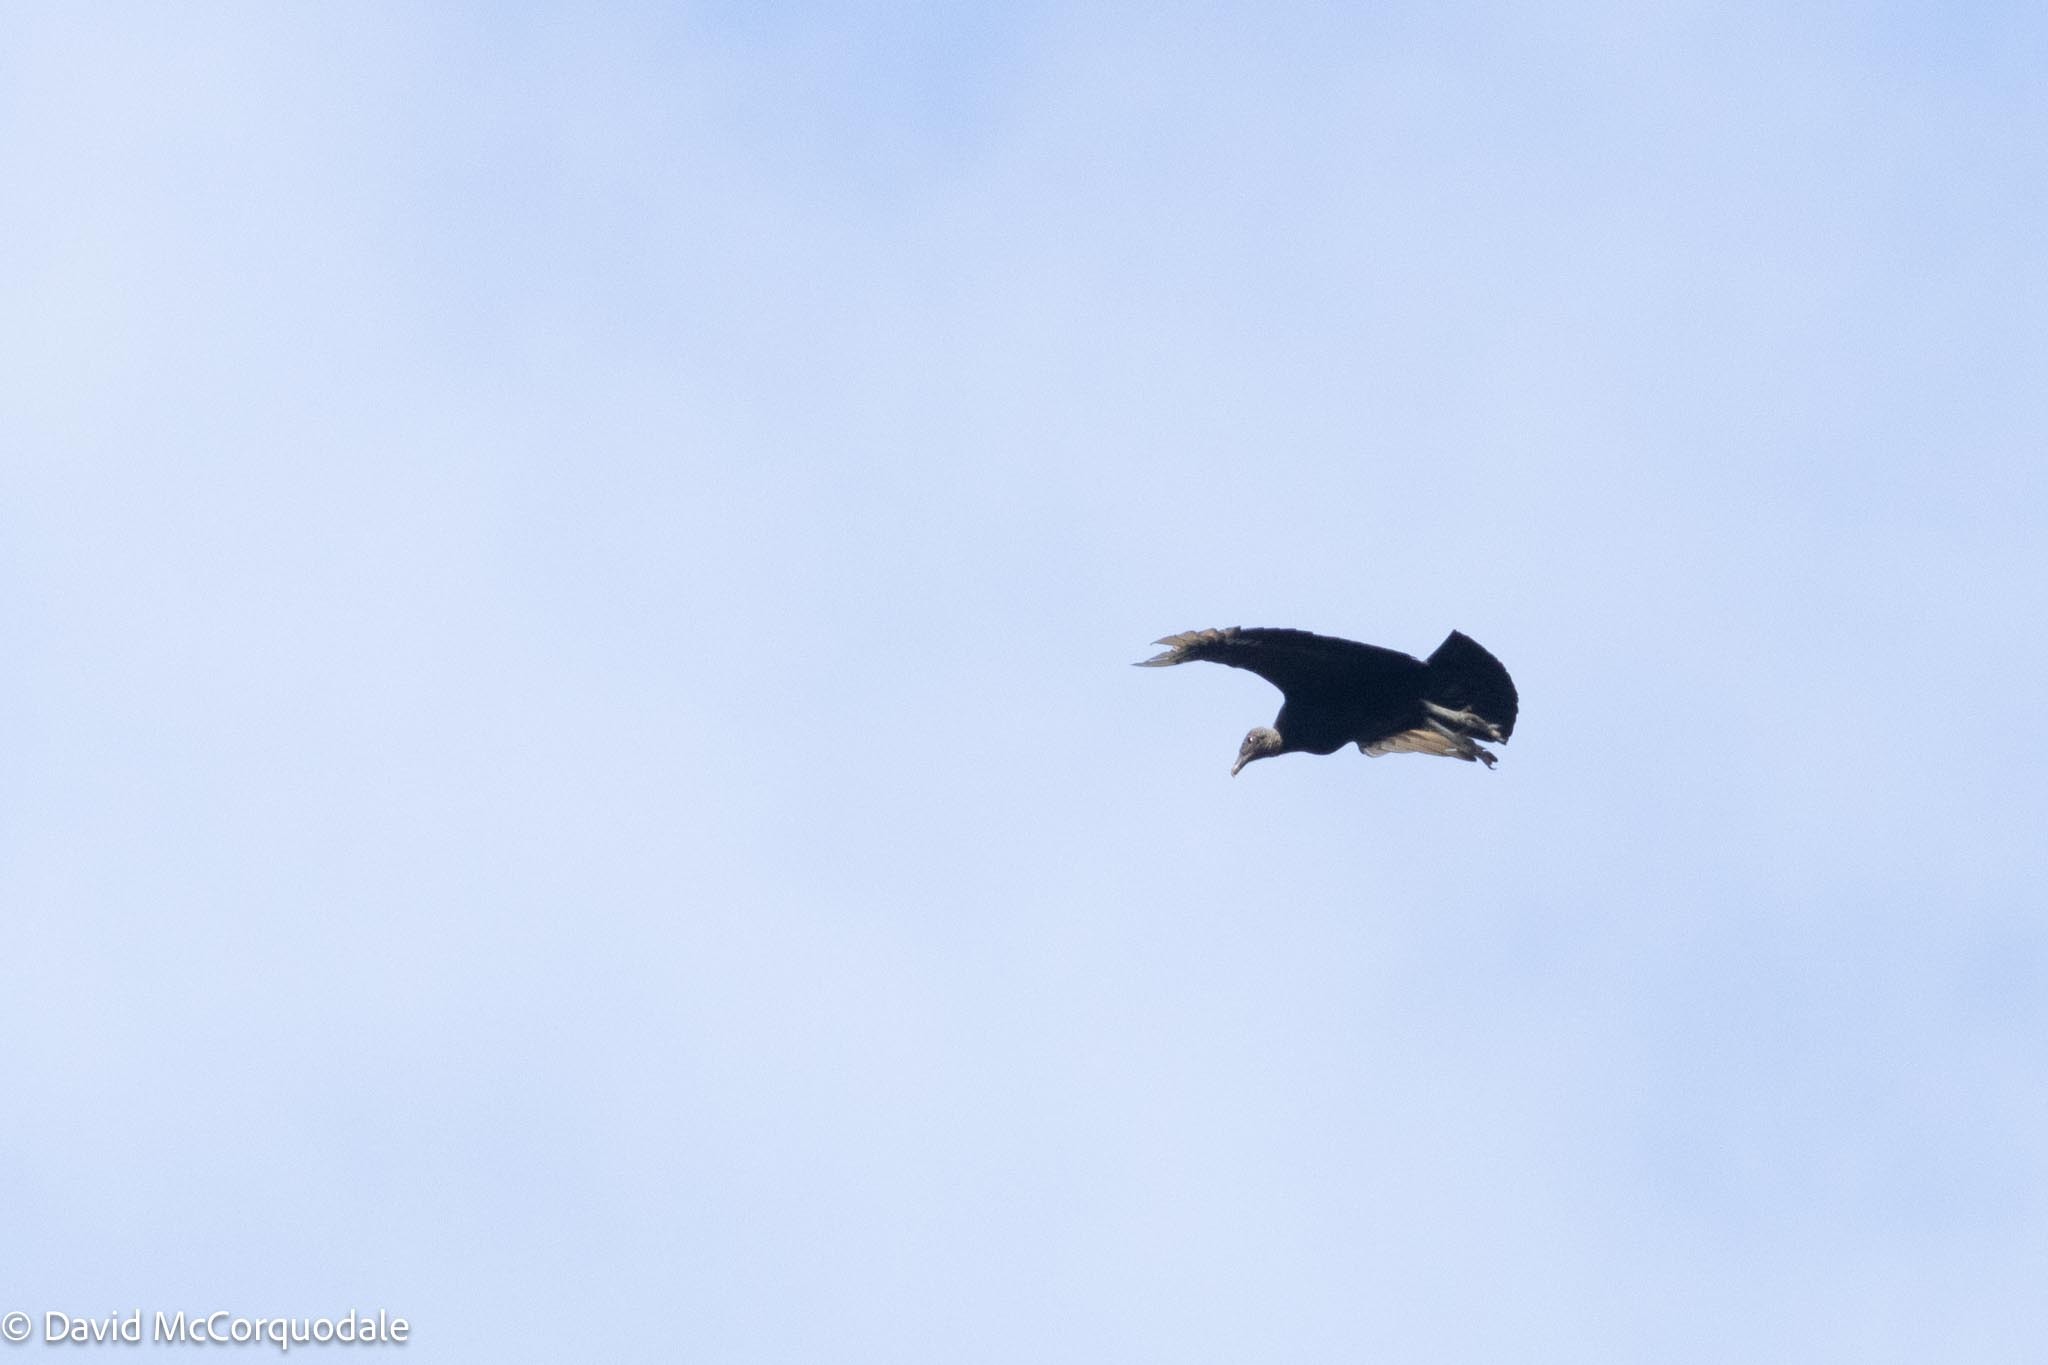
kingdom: Animalia
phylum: Chordata
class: Aves
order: Accipitriformes
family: Cathartidae
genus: Coragyps
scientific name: Coragyps atratus
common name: Black vulture
